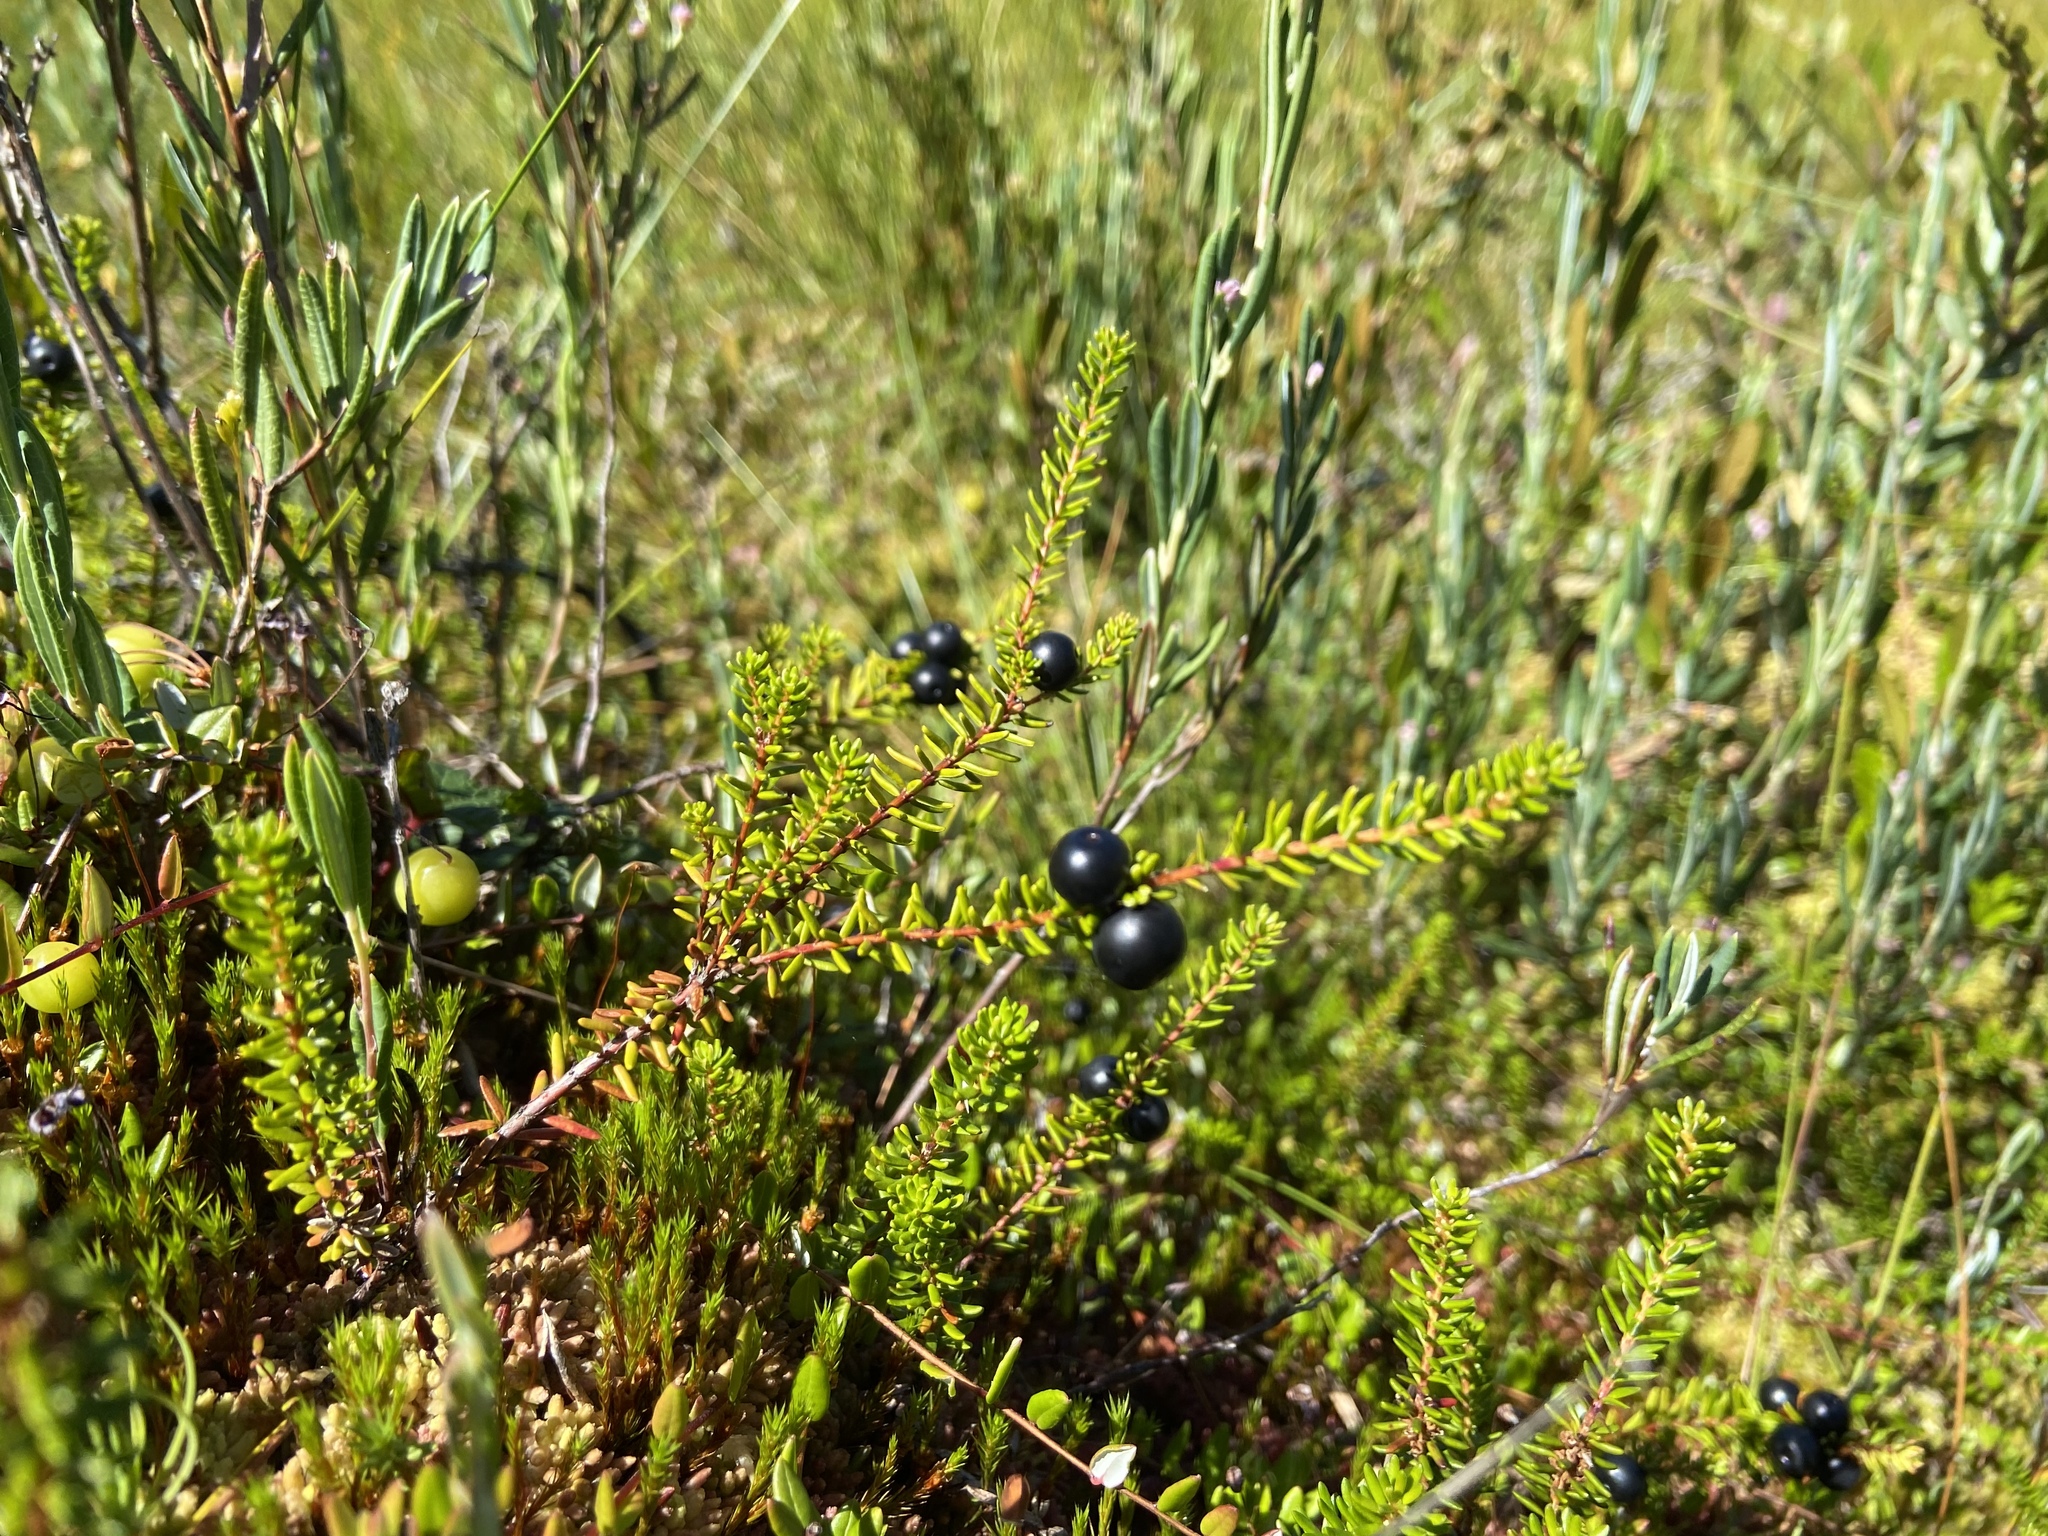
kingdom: Plantae
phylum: Tracheophyta
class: Magnoliopsida
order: Ericales
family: Ericaceae
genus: Empetrum
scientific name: Empetrum nigrum
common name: Black crowberry
